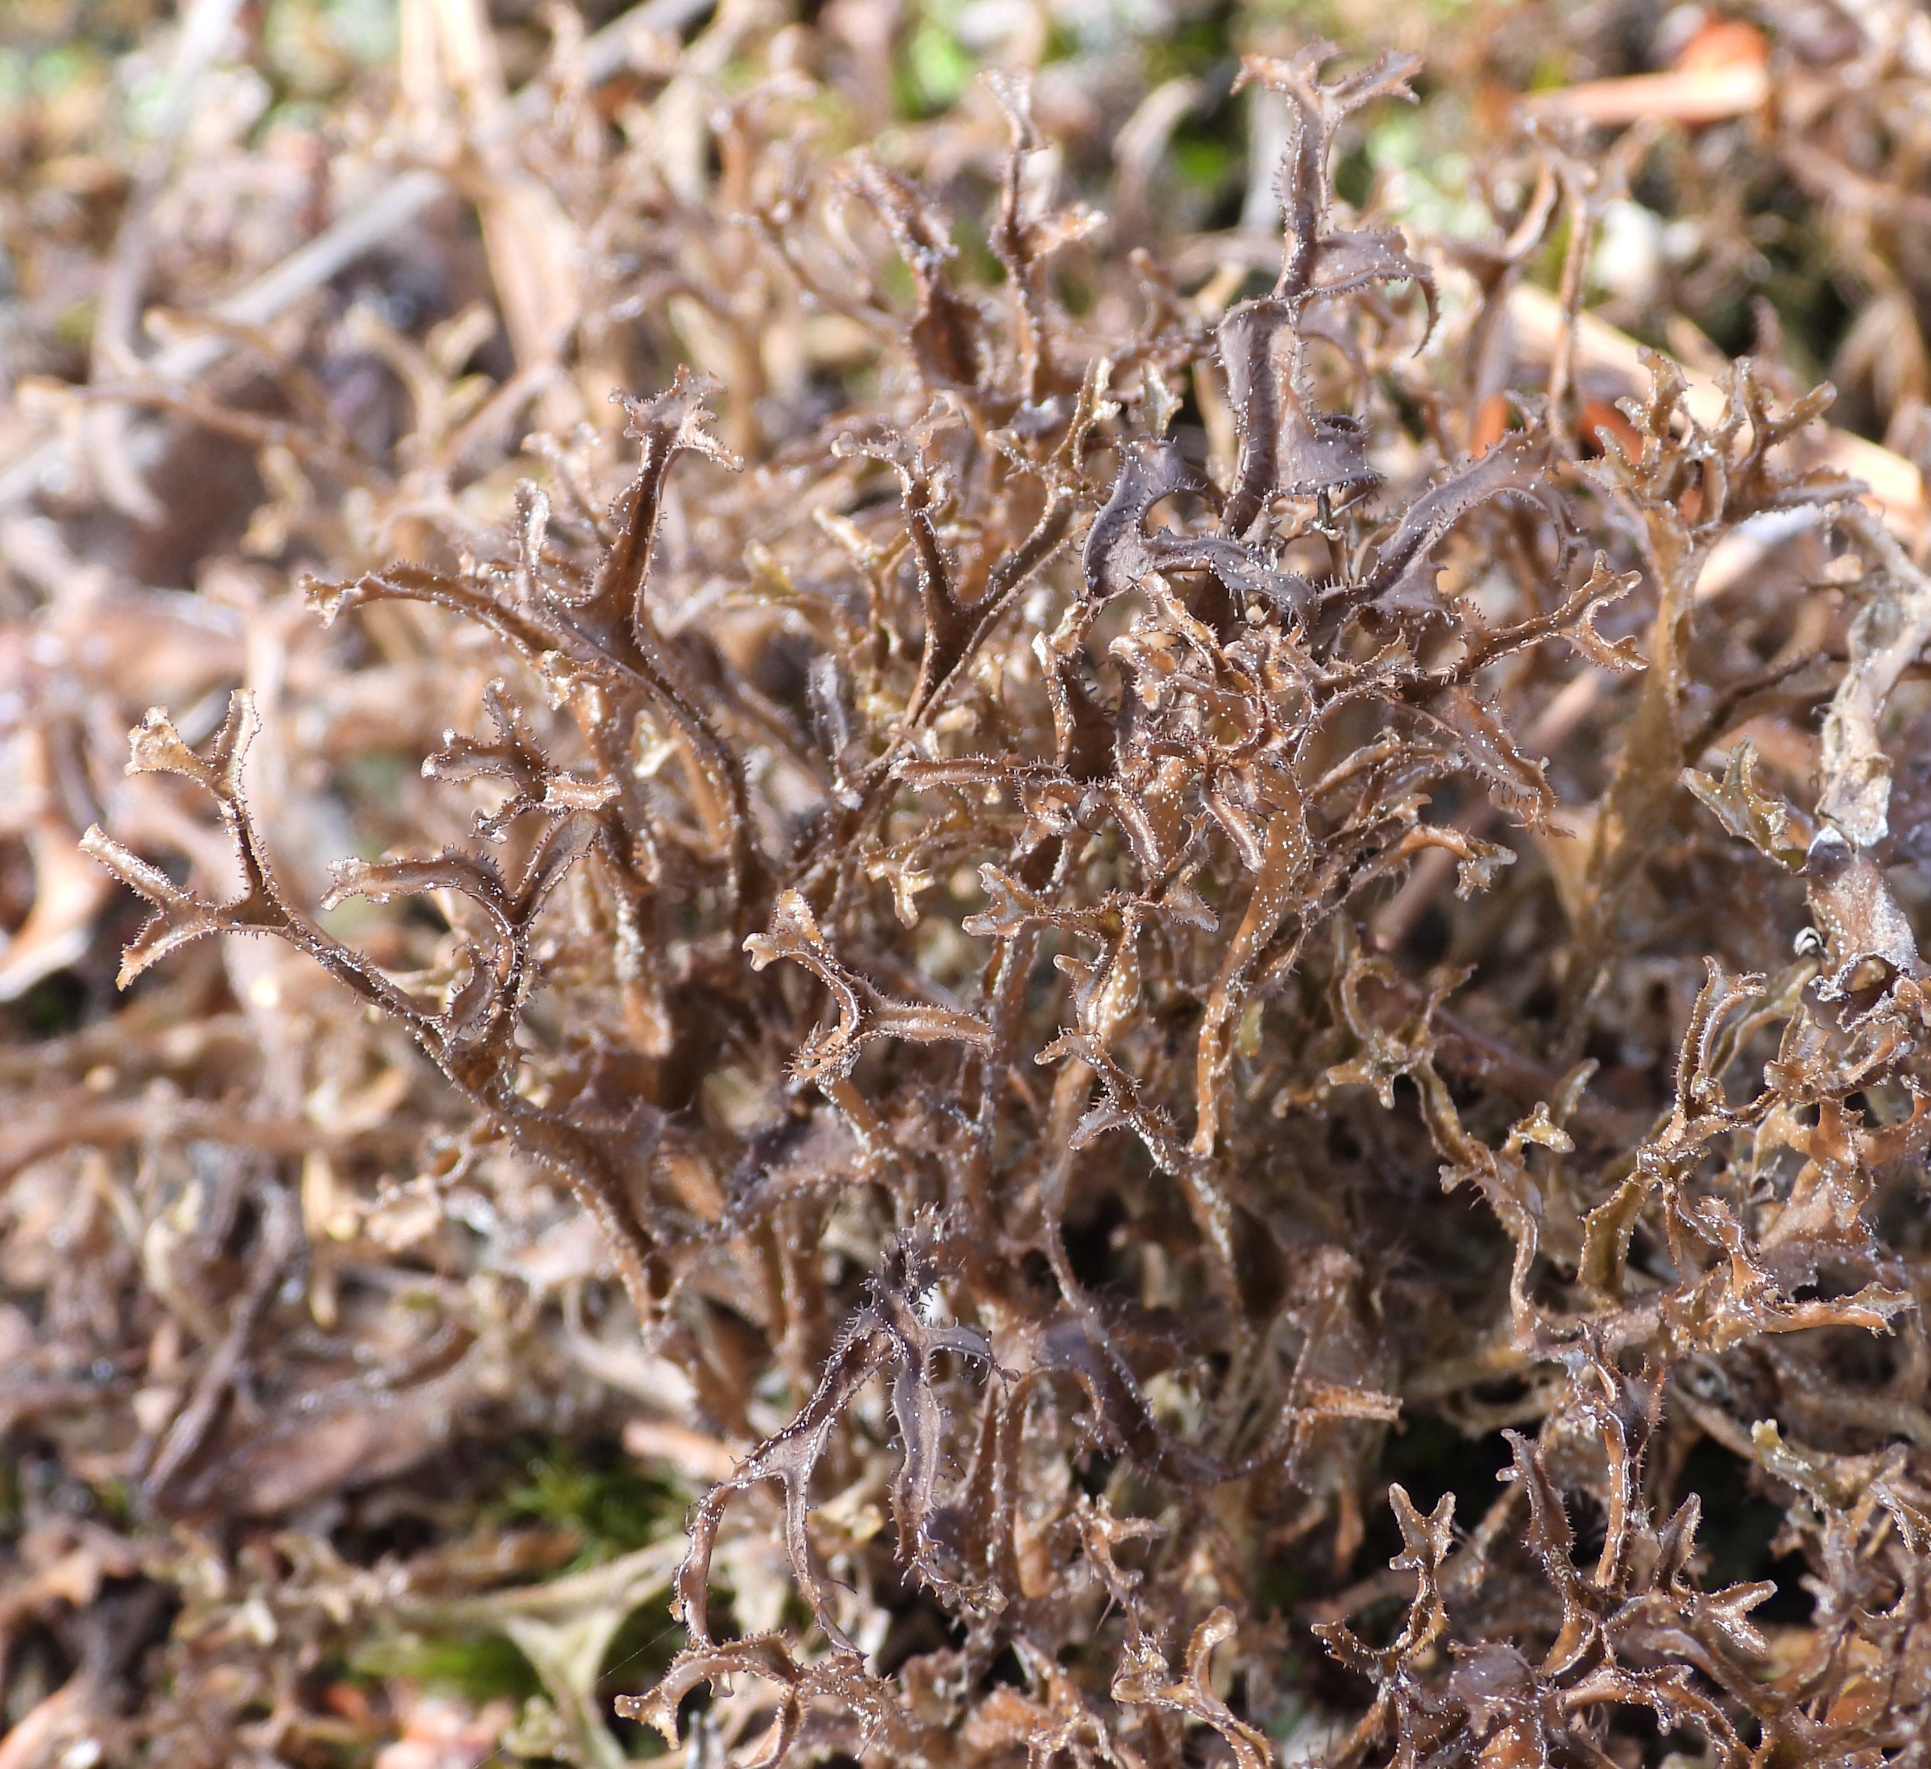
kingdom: Fungi
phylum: Ascomycota
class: Lecanoromycetes
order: Lecanorales
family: Parmeliaceae
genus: Cetraria
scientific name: Cetraria ericetorum
